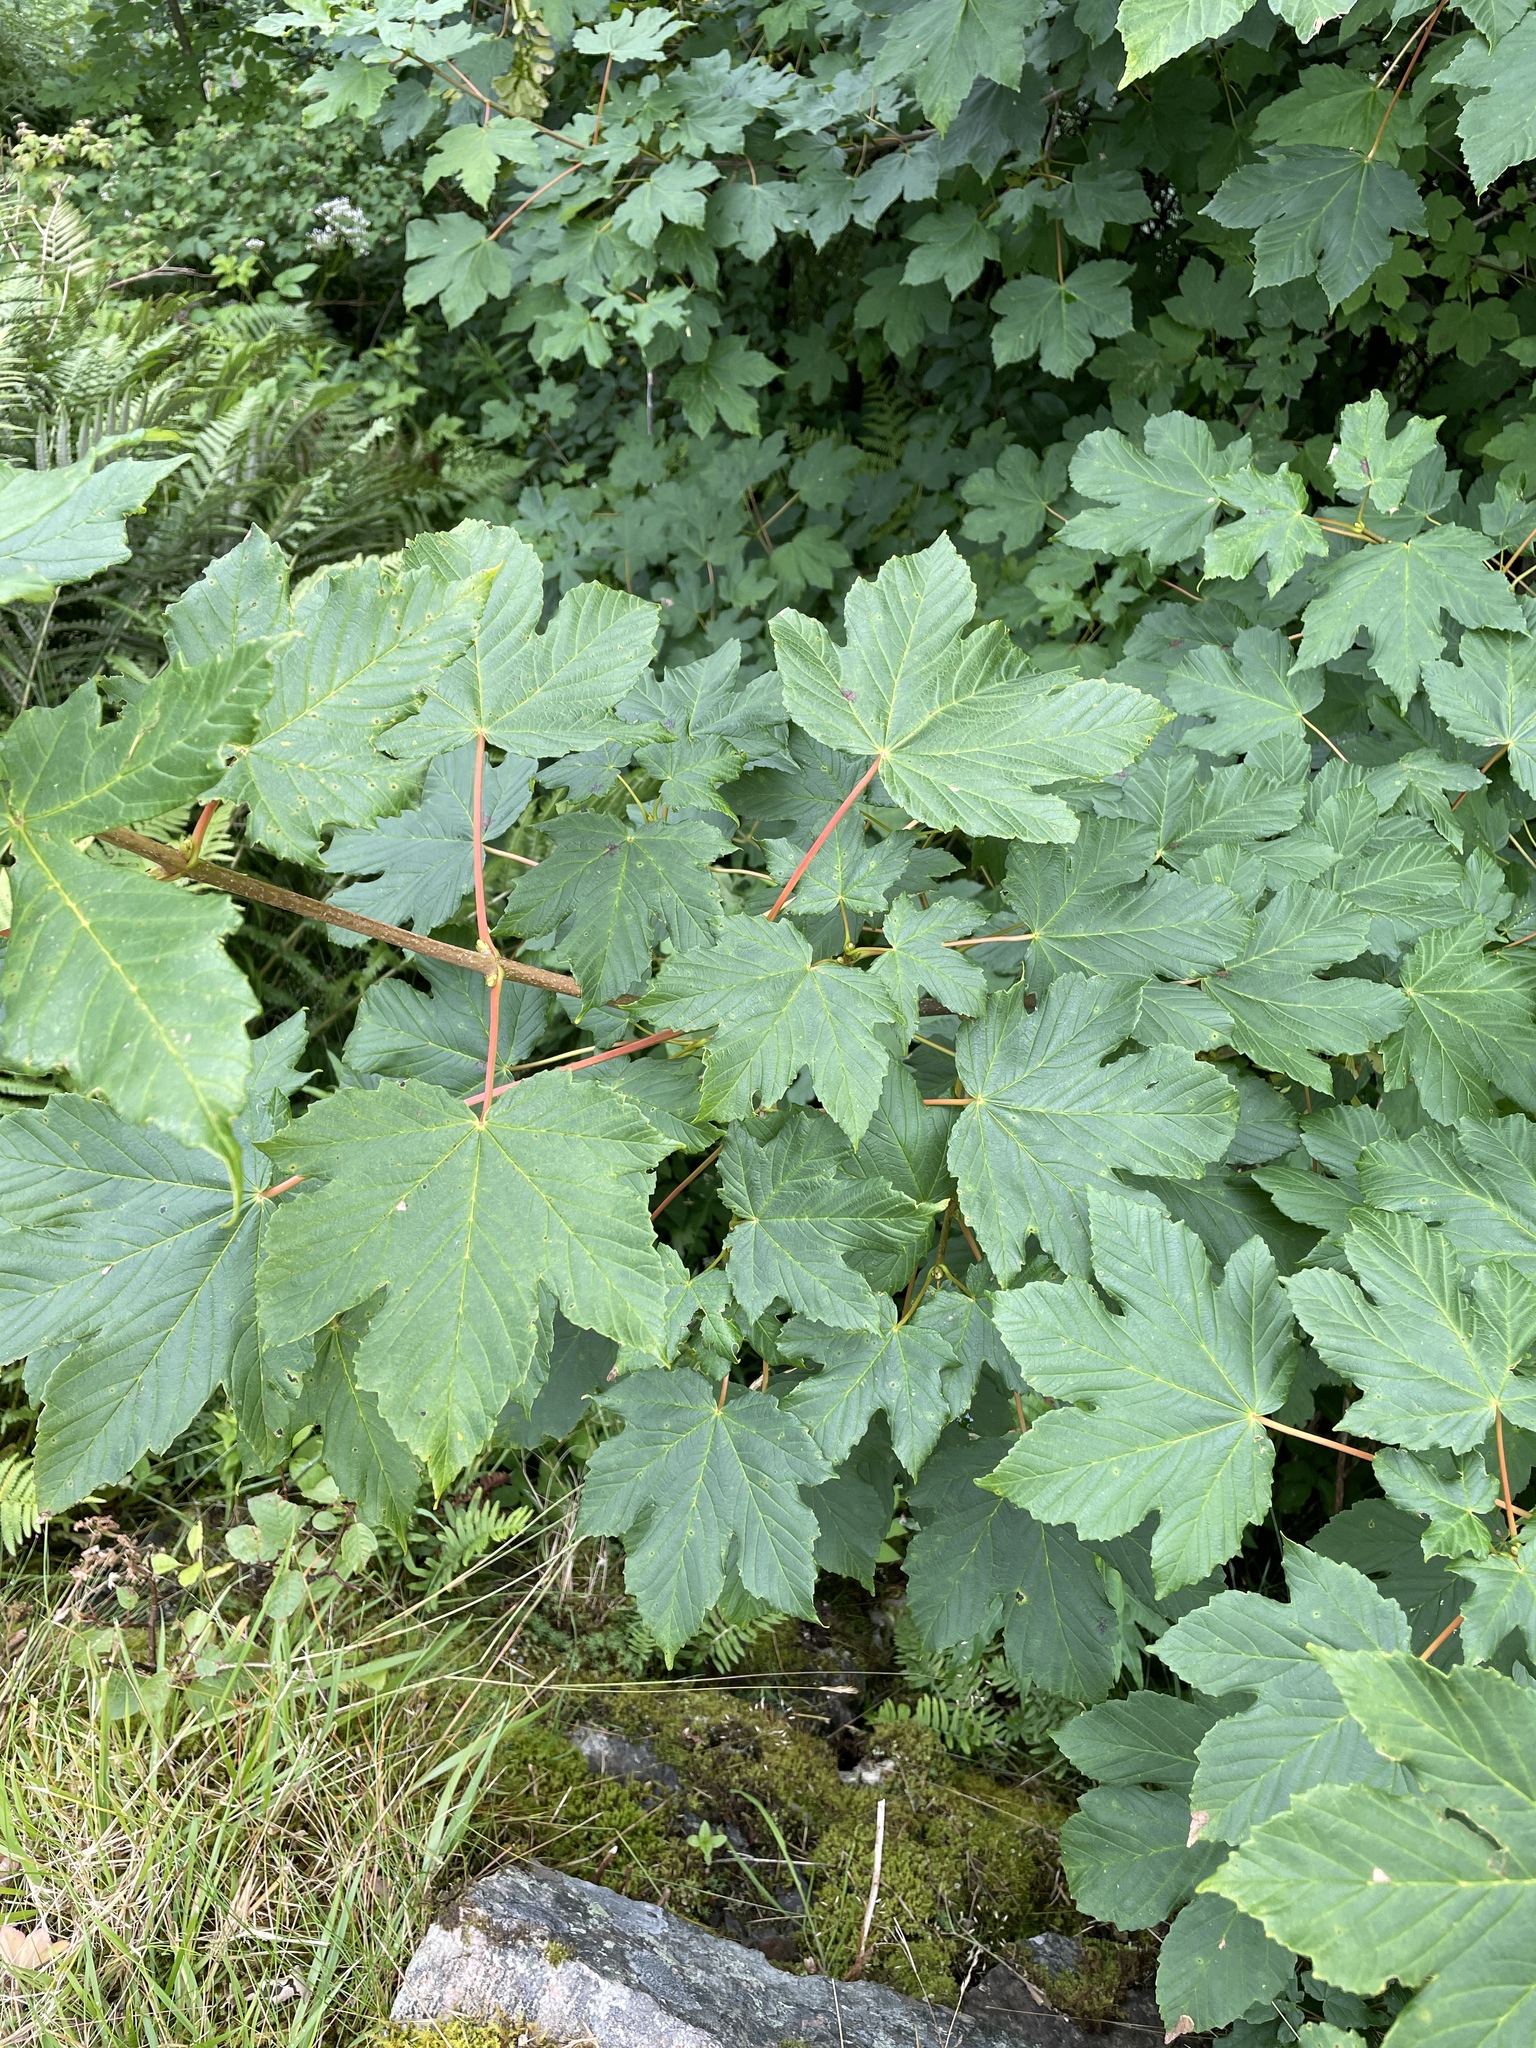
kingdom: Plantae
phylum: Tracheophyta
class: Magnoliopsida
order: Sapindales
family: Sapindaceae
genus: Acer
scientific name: Acer pseudoplatanus
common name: Sycamore
